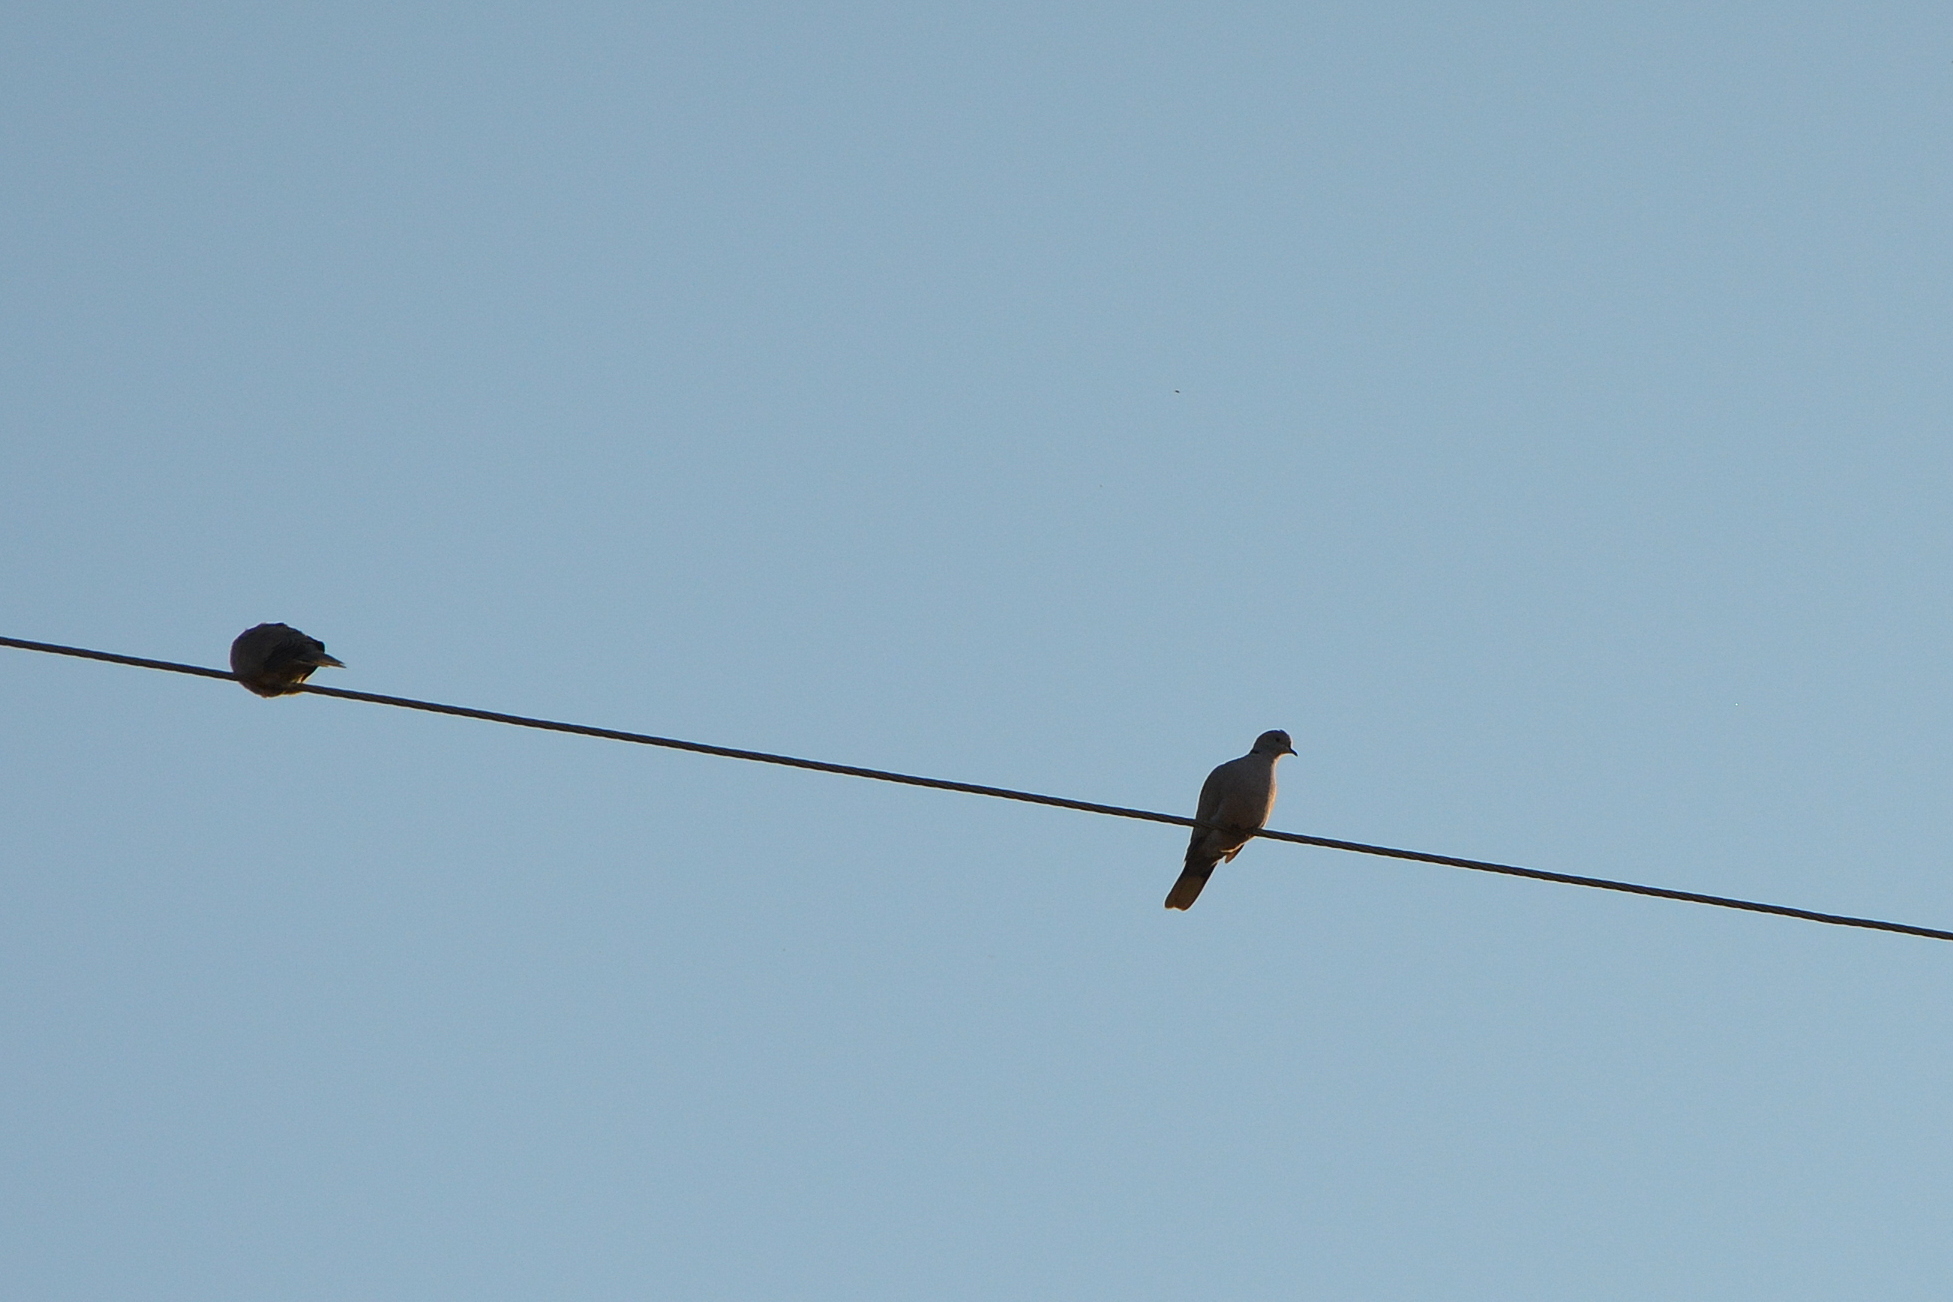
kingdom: Animalia
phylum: Chordata
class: Aves
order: Columbiformes
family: Columbidae
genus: Streptopelia
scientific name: Streptopelia decaocto
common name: Eurasian collared dove
